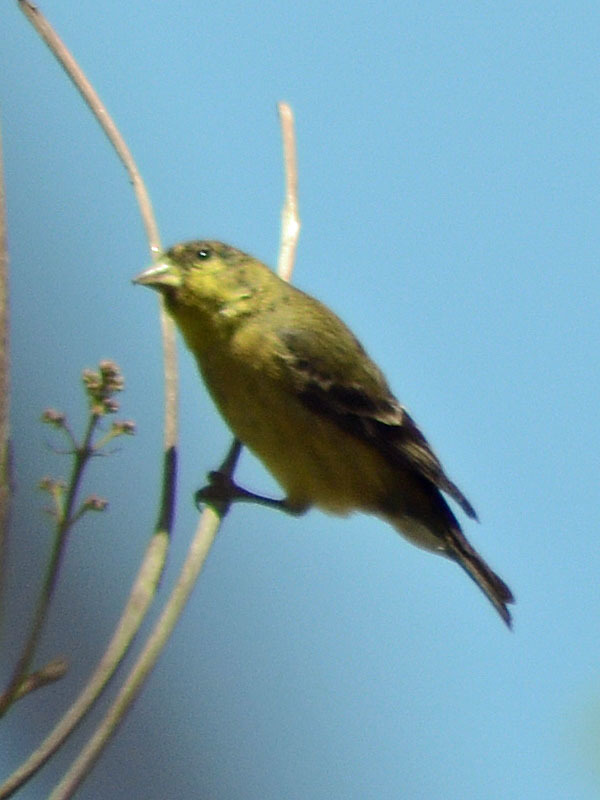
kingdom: Animalia
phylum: Chordata
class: Aves
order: Passeriformes
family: Fringillidae
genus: Spinus
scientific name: Spinus psaltria
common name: Lesser goldfinch
